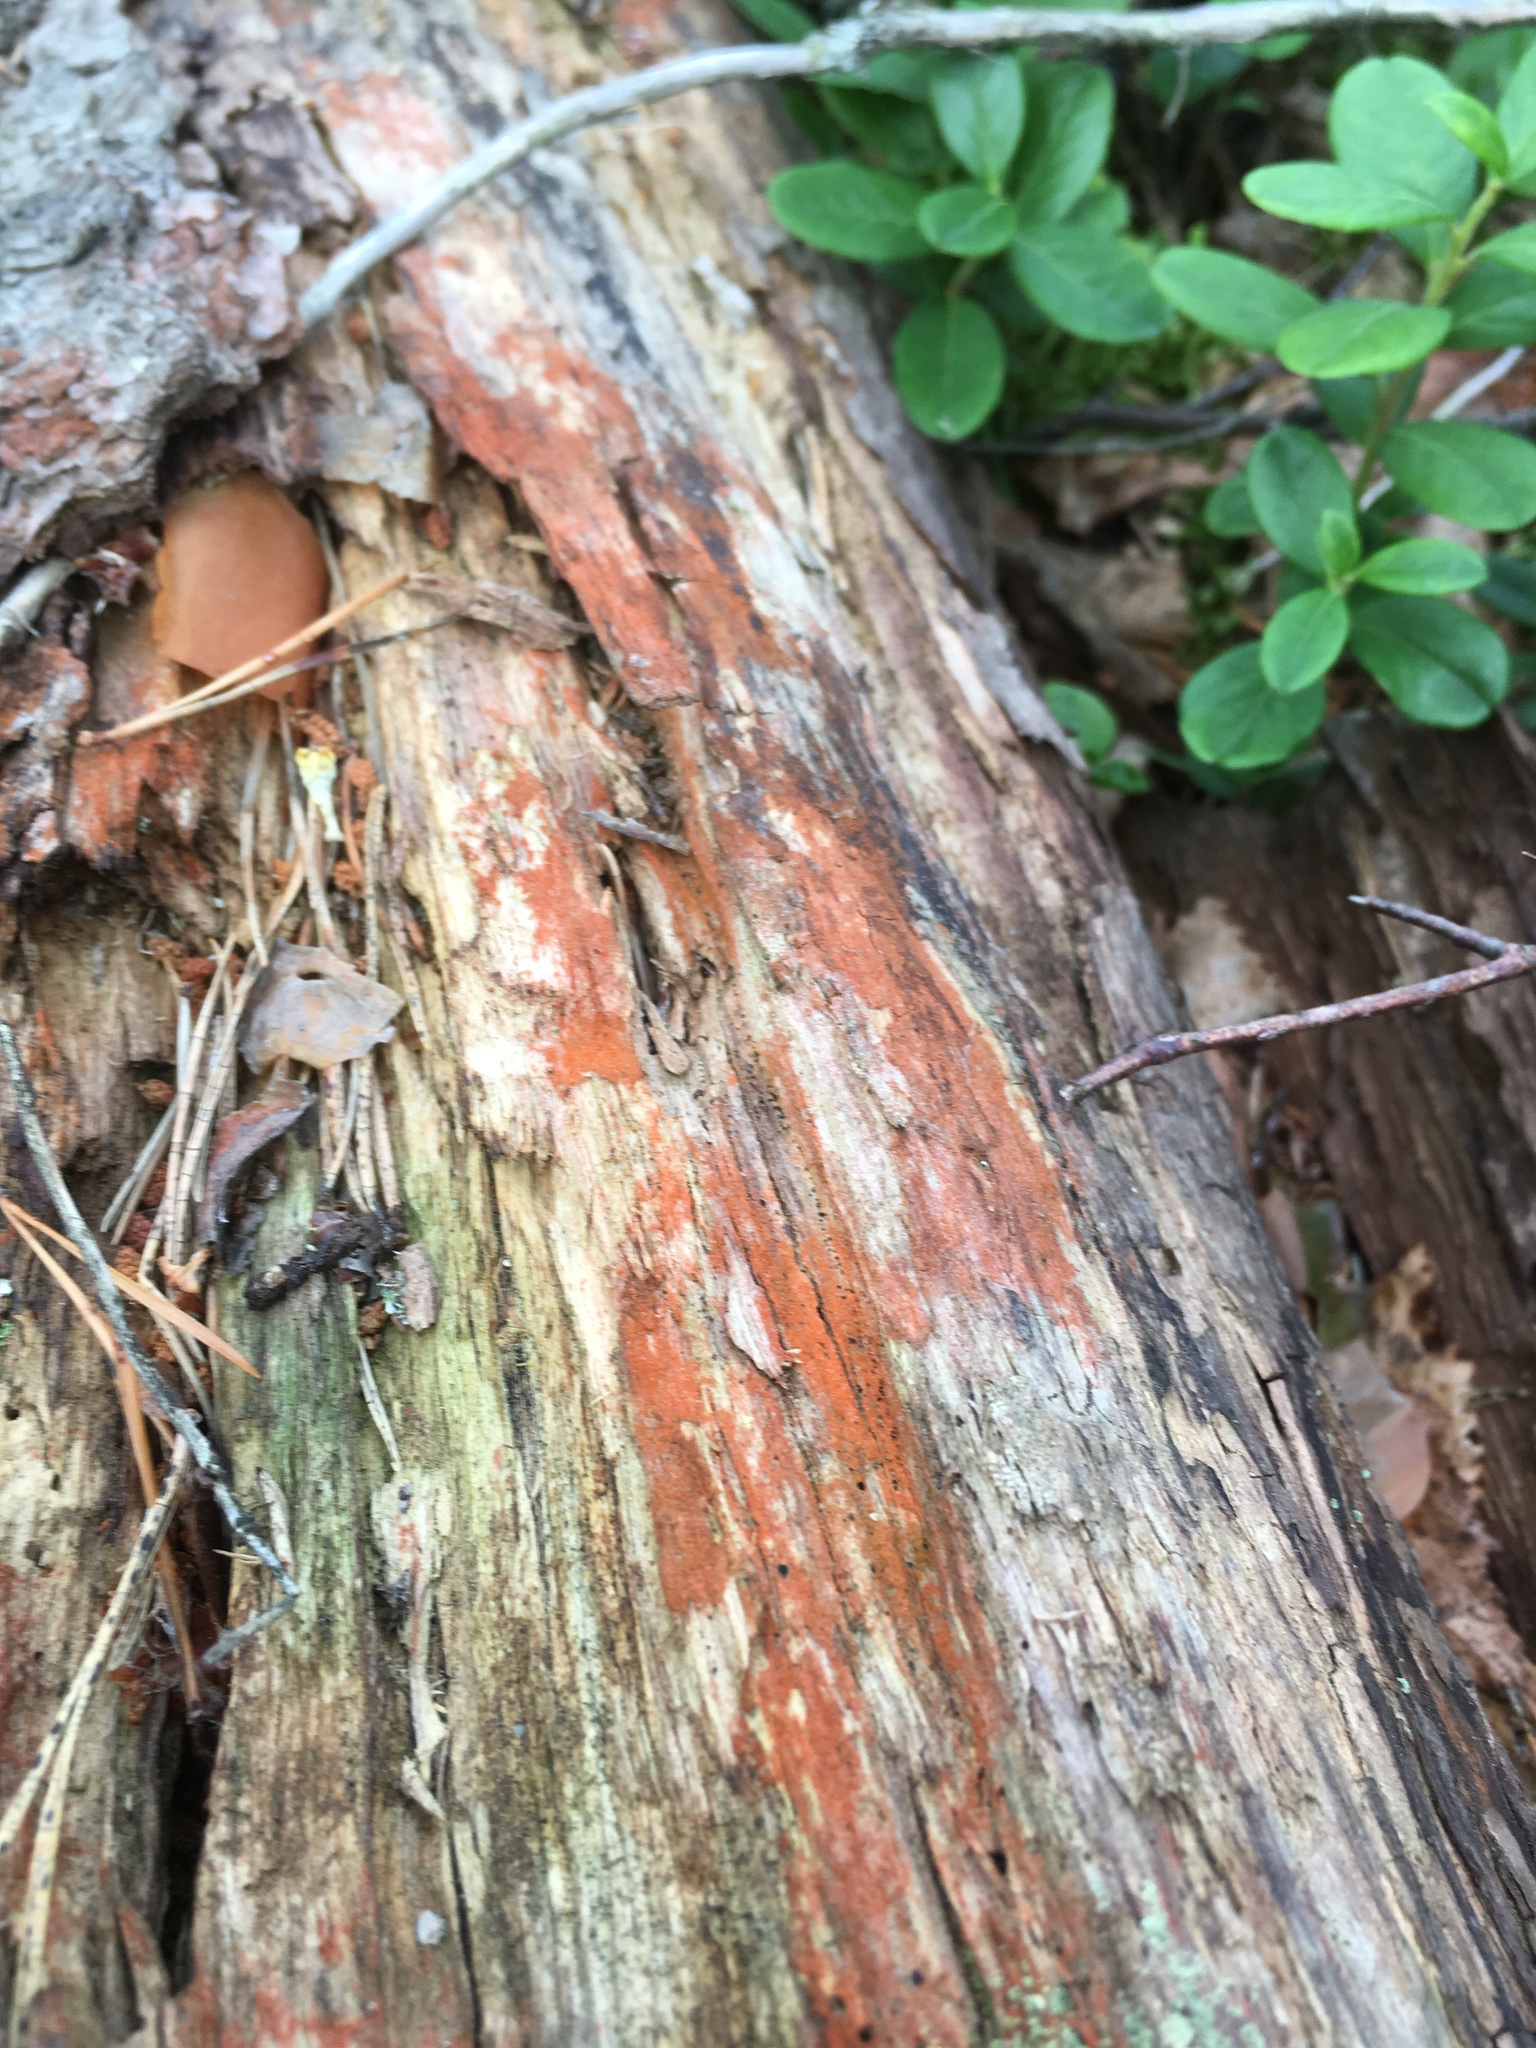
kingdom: Plantae
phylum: Chlorophyta
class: Ulvophyceae
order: Trentepohliales
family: Trentepohliaceae
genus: Trentepohlia
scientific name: Trentepohlia
